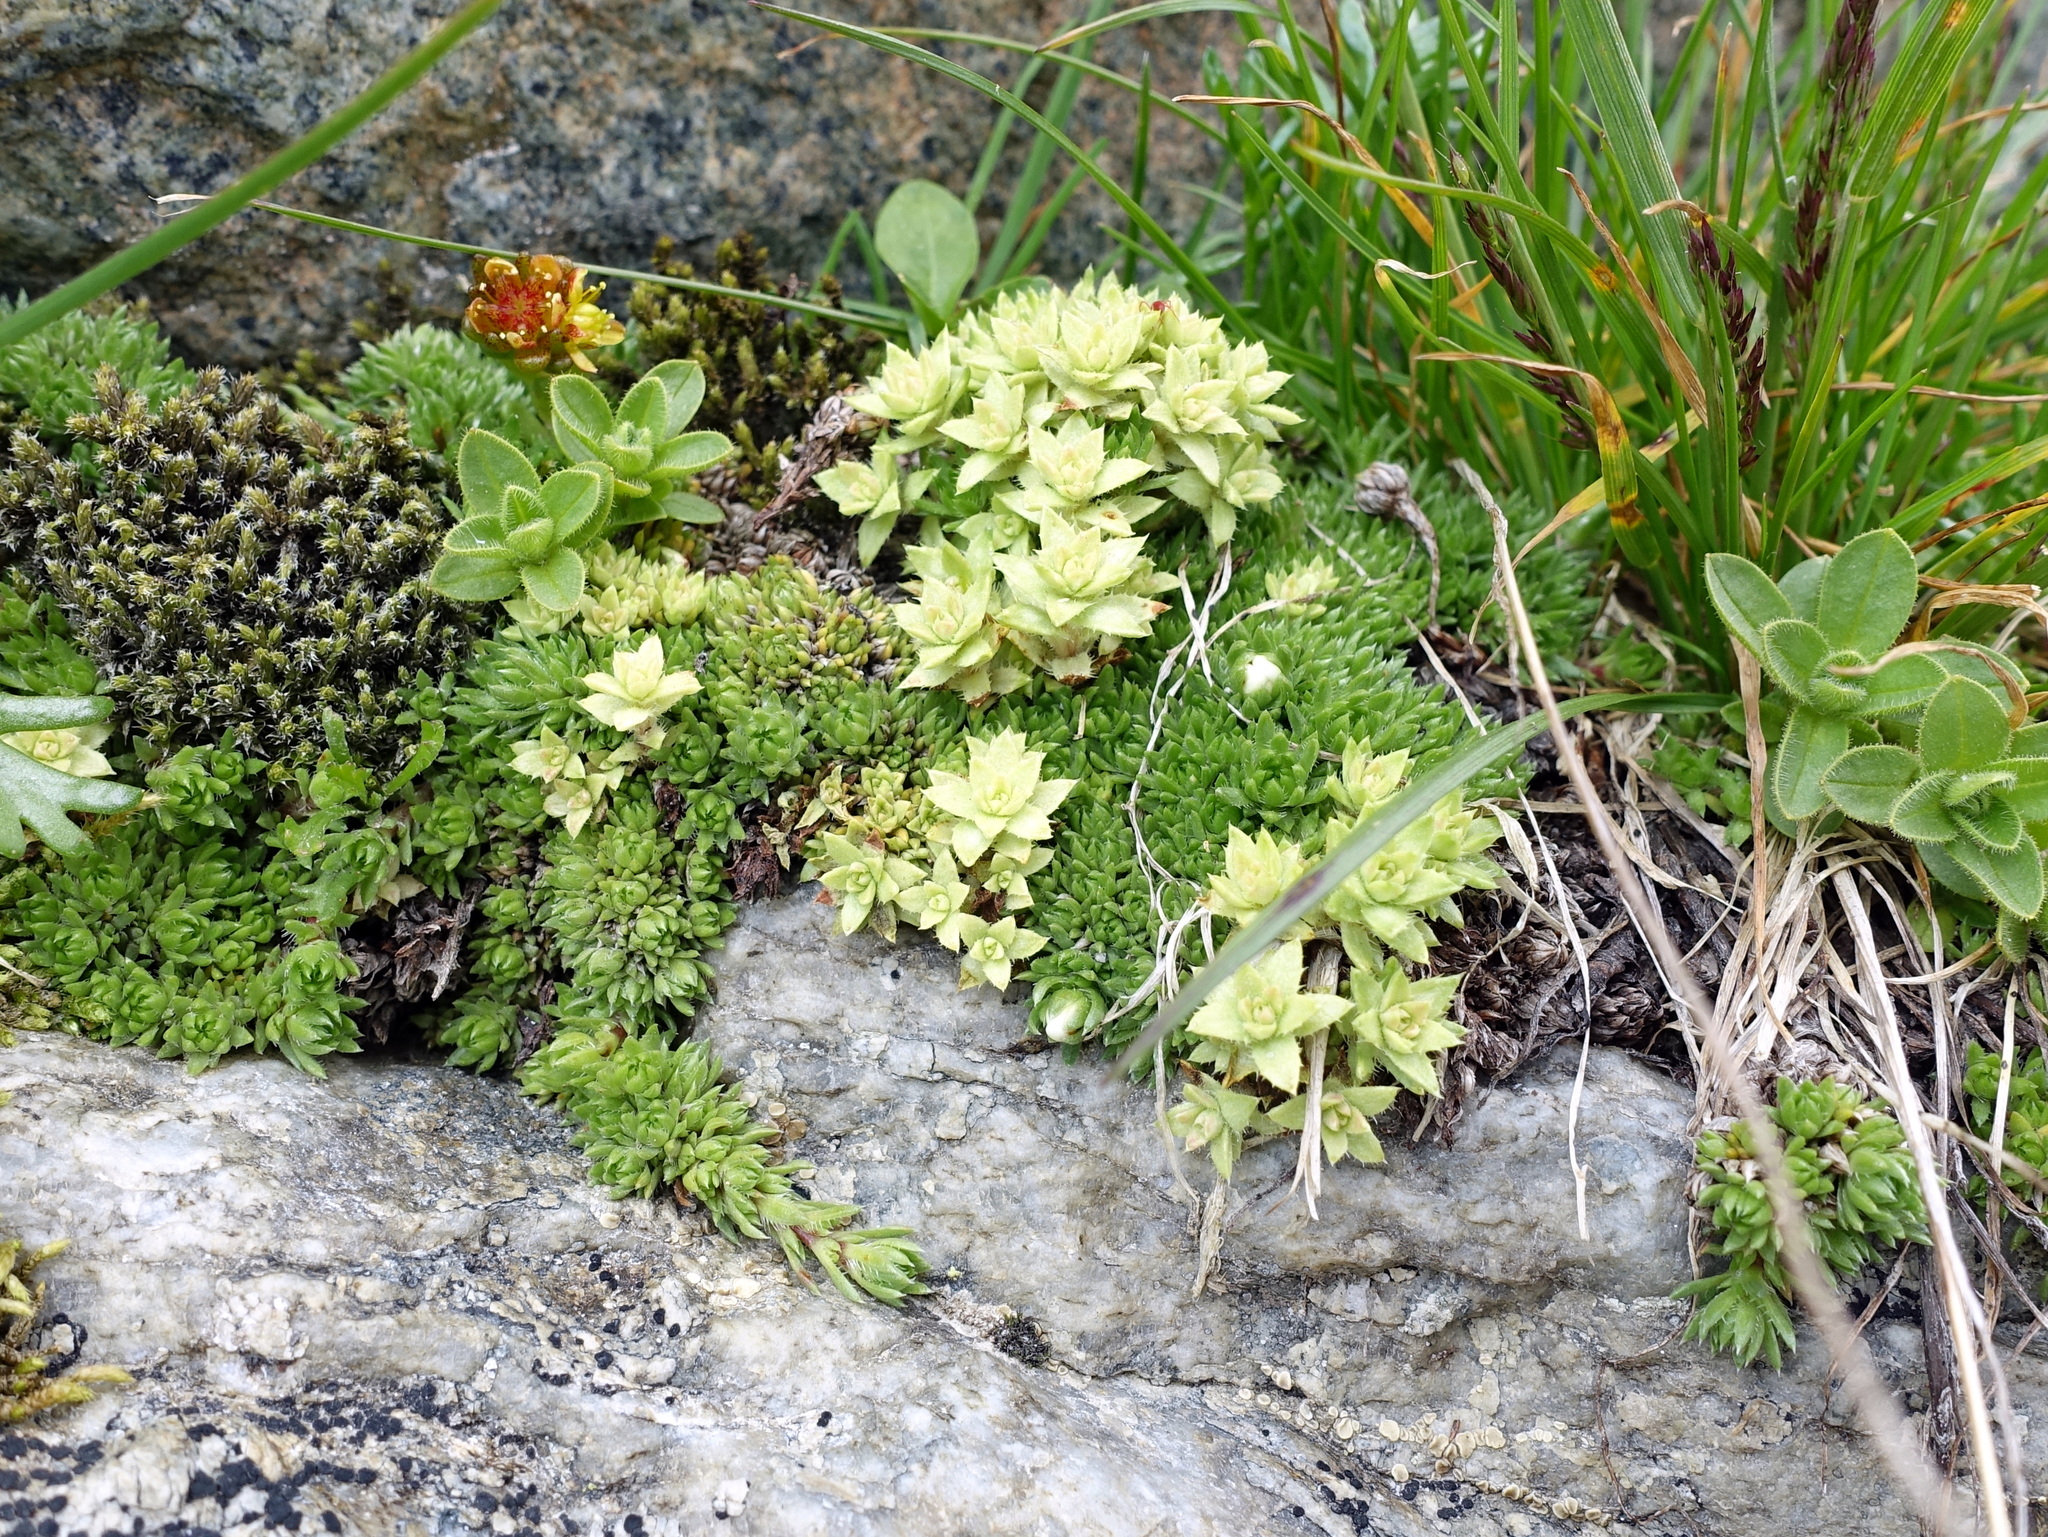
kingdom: Plantae
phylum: Tracheophyta
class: Magnoliopsida
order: Saxifragales
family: Saxifragaceae
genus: Saxifraga
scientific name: Saxifraga bryoides
